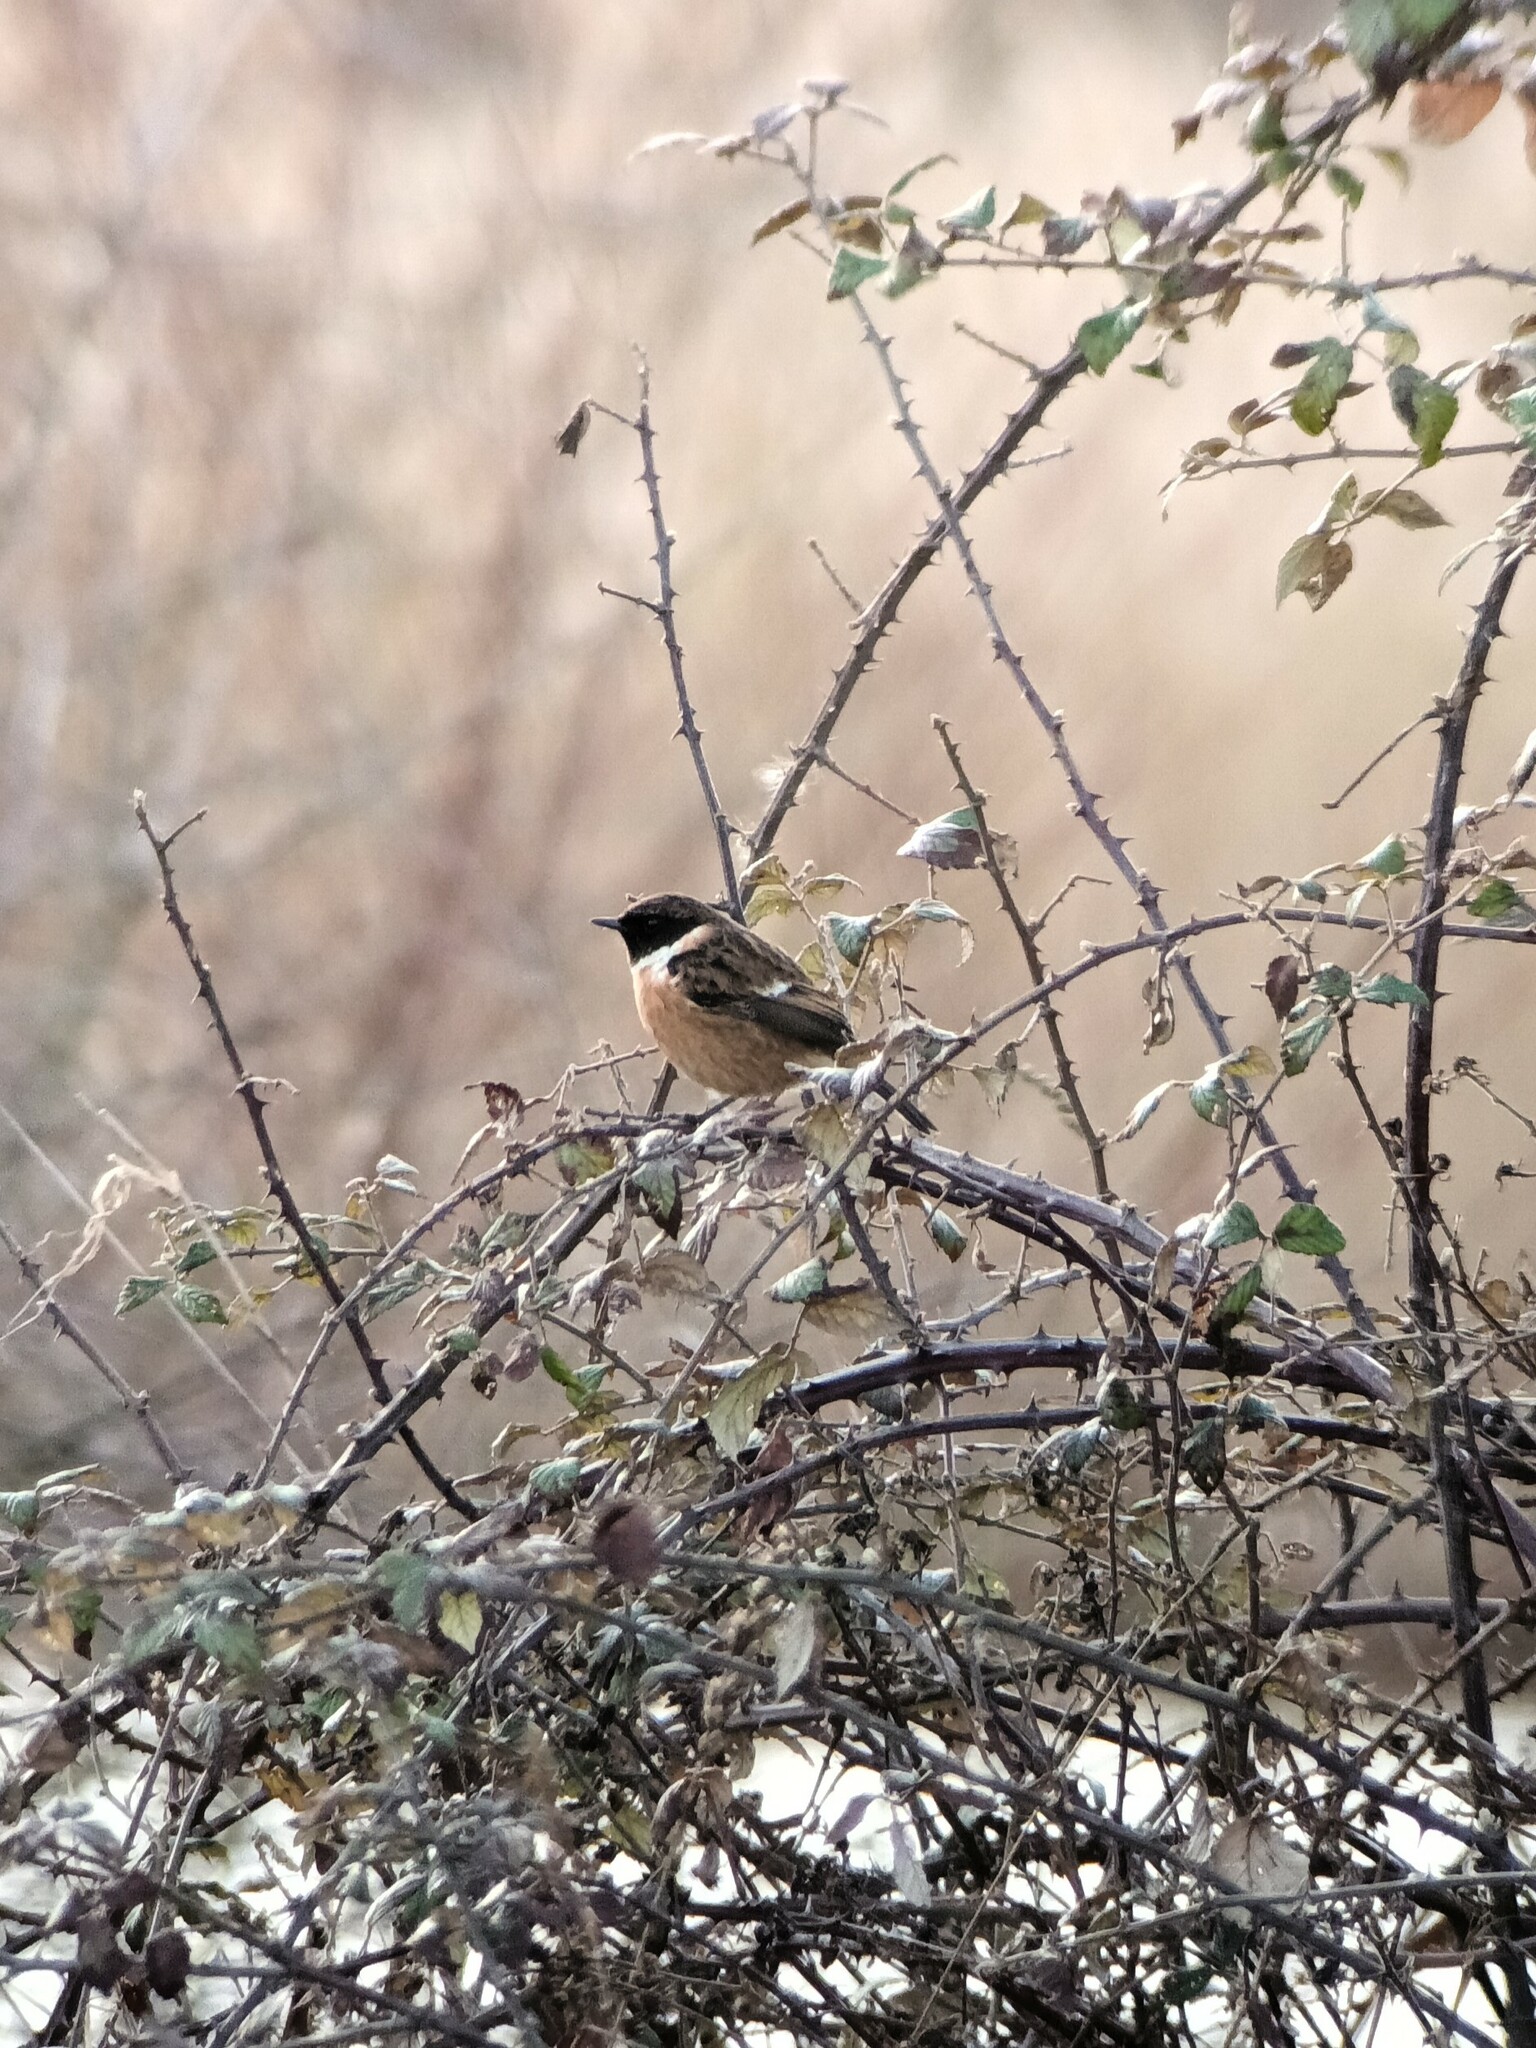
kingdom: Animalia
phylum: Chordata
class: Aves
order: Passeriformes
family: Muscicapidae
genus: Saxicola
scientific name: Saxicola rubicola
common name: European stonechat
